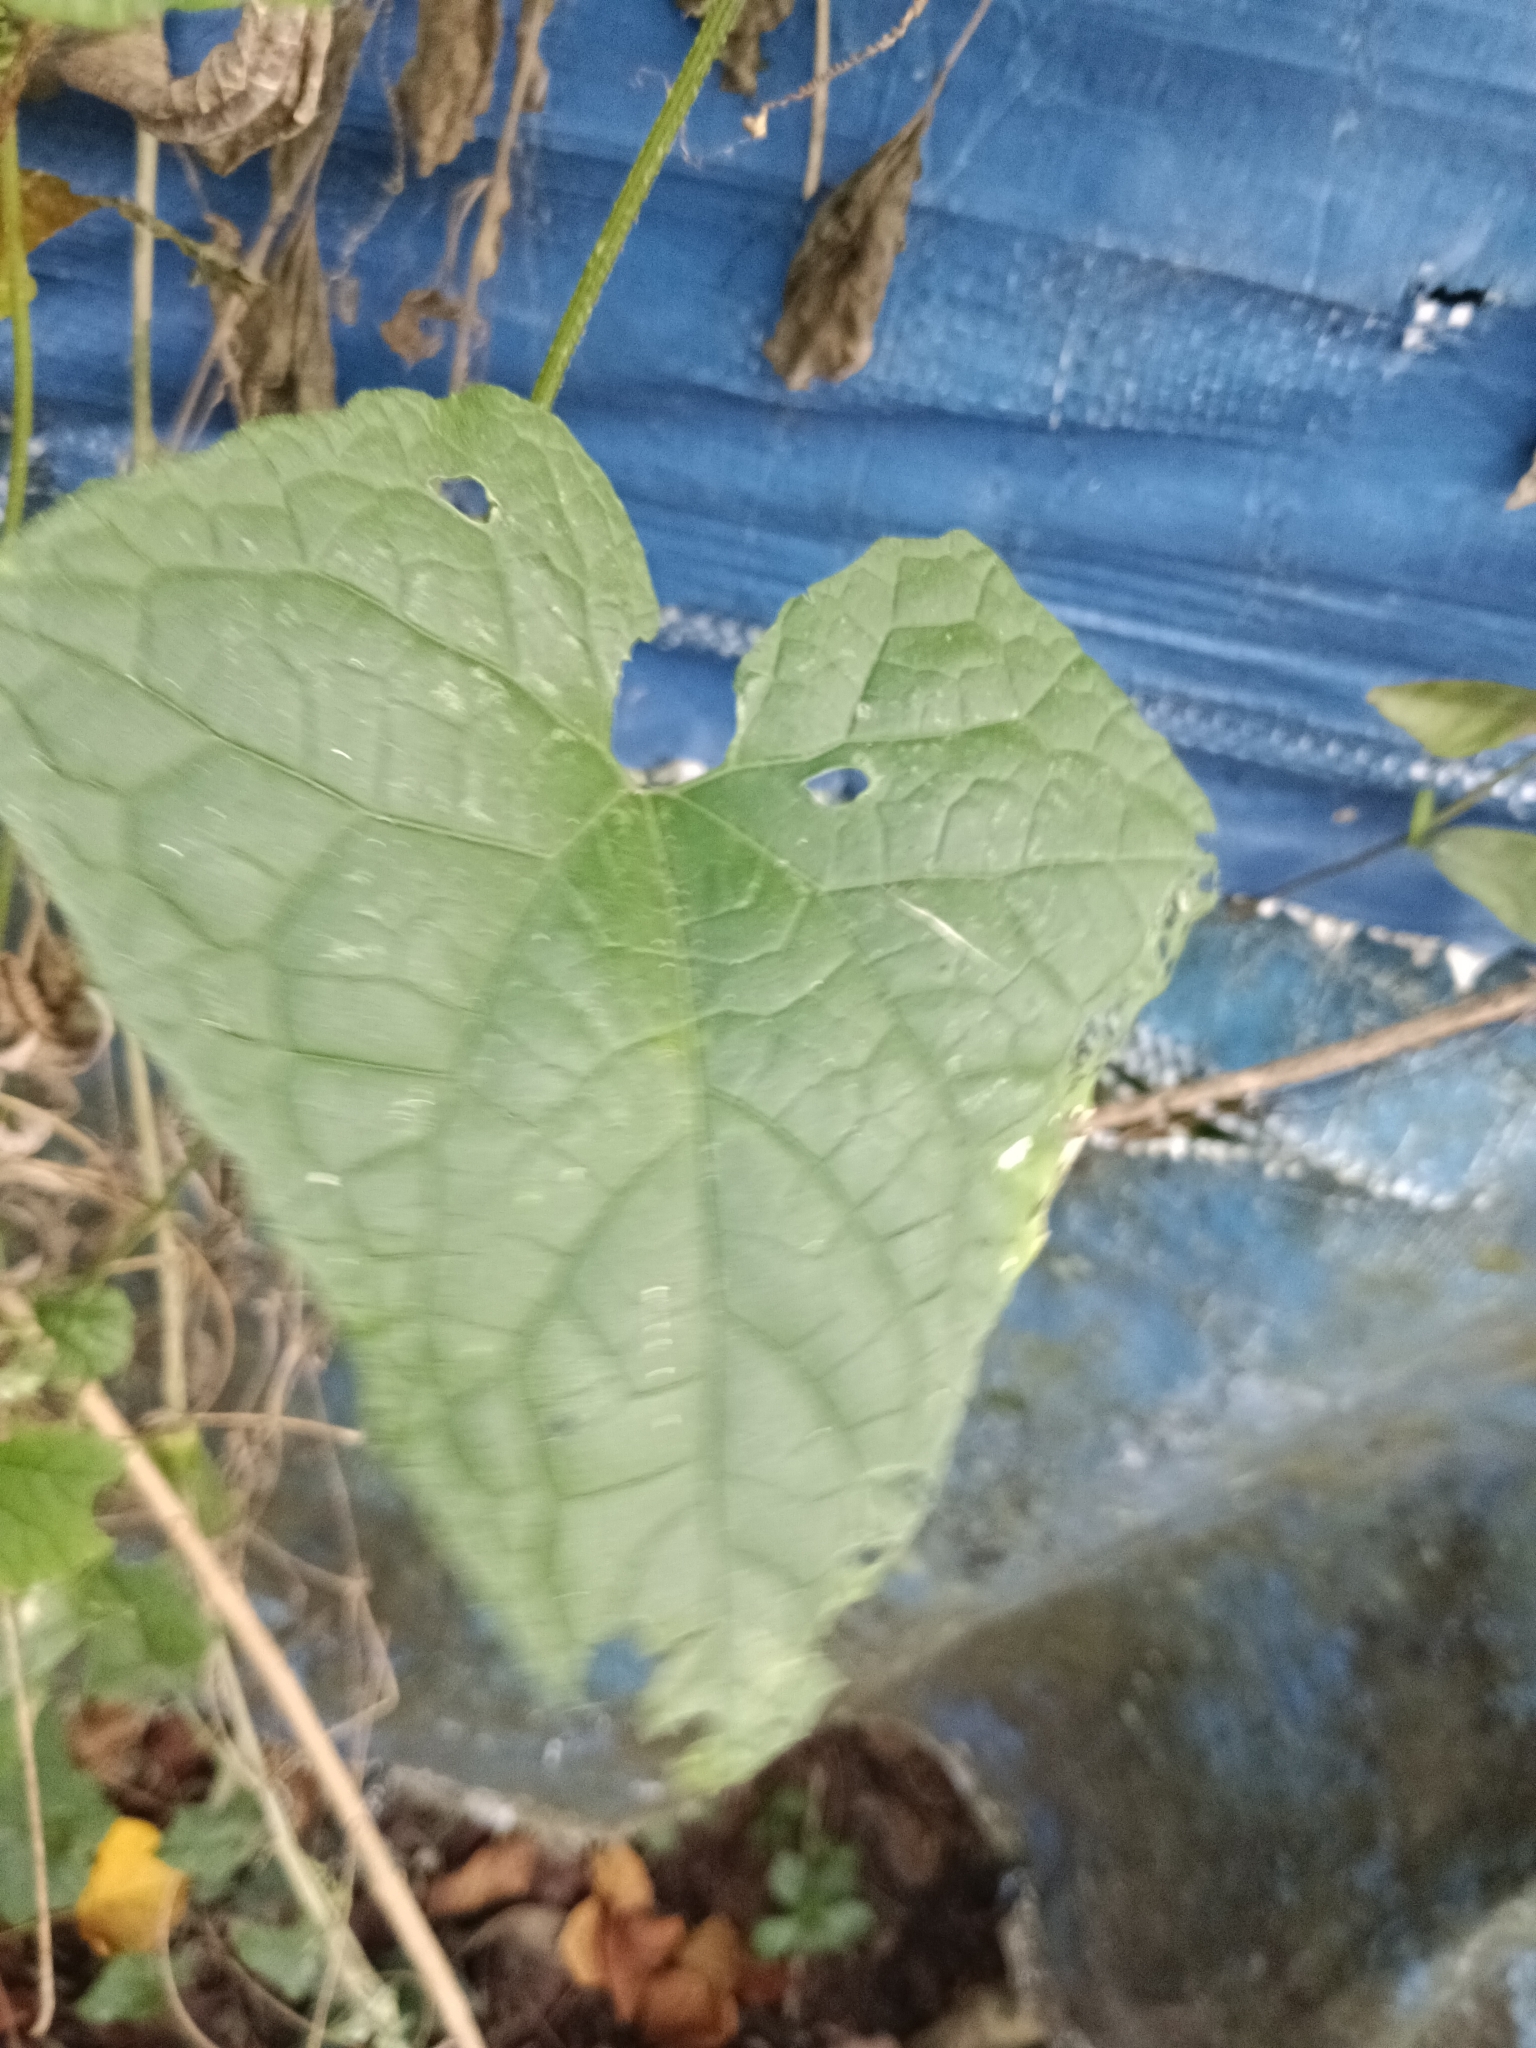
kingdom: Plantae
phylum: Tracheophyta
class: Magnoliopsida
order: Cucurbitales
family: Cucurbitaceae
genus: Cucumis
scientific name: Cucumis maderaspatanus
